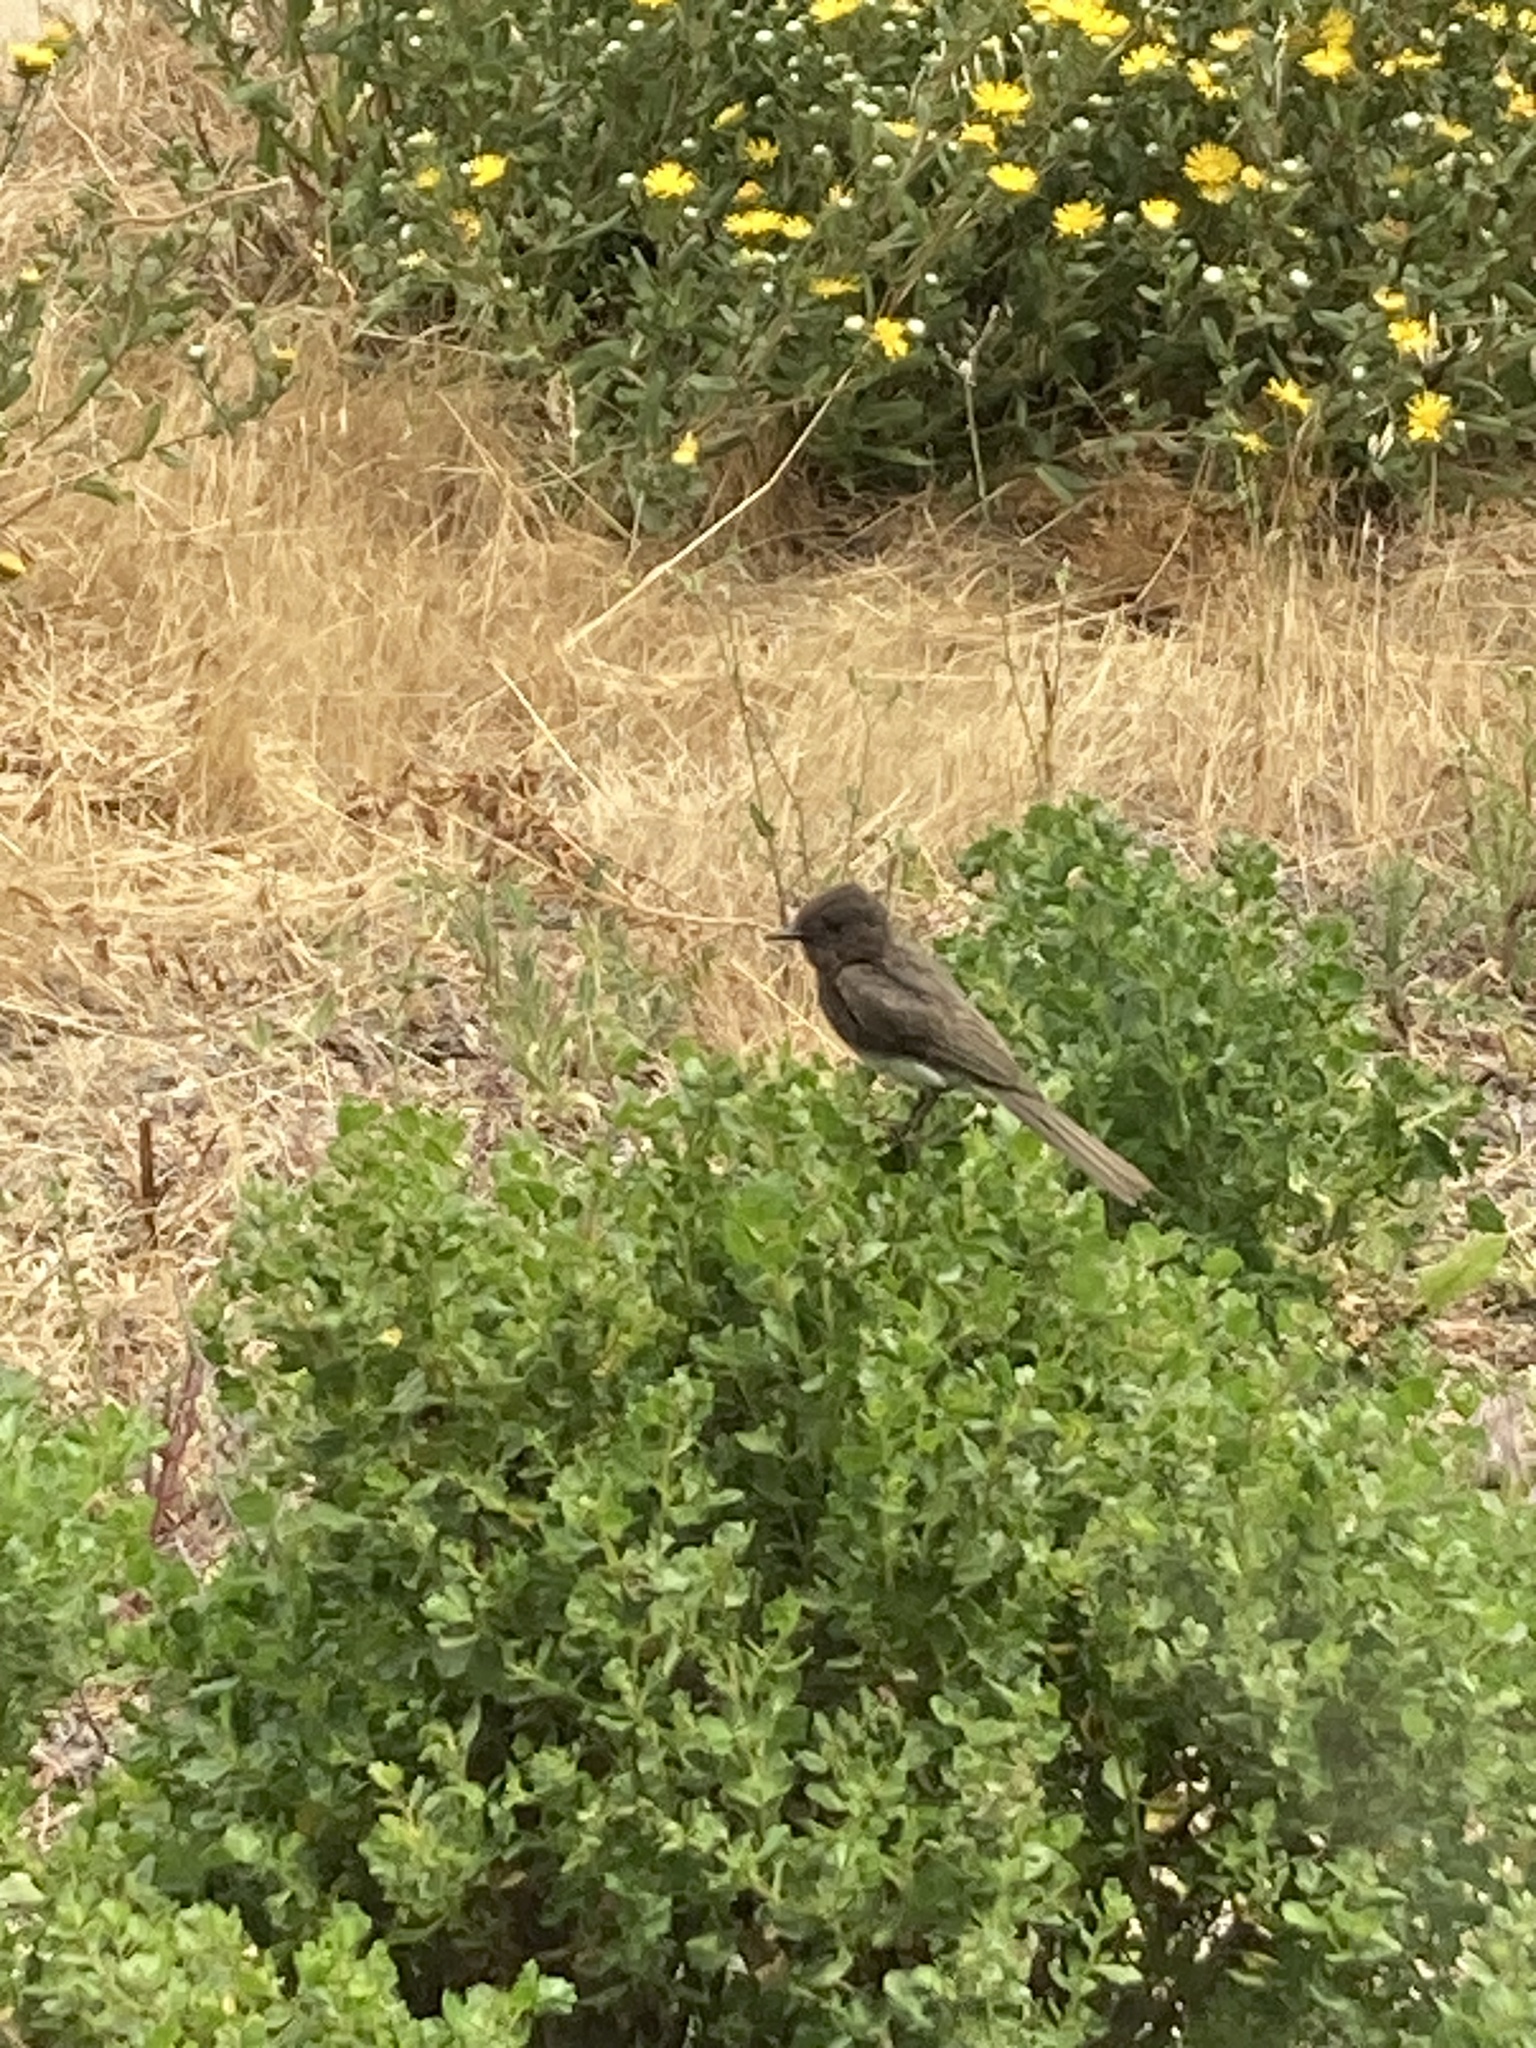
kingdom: Animalia
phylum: Chordata
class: Aves
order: Passeriformes
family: Tyrannidae
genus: Sayornis
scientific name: Sayornis nigricans
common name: Black phoebe
